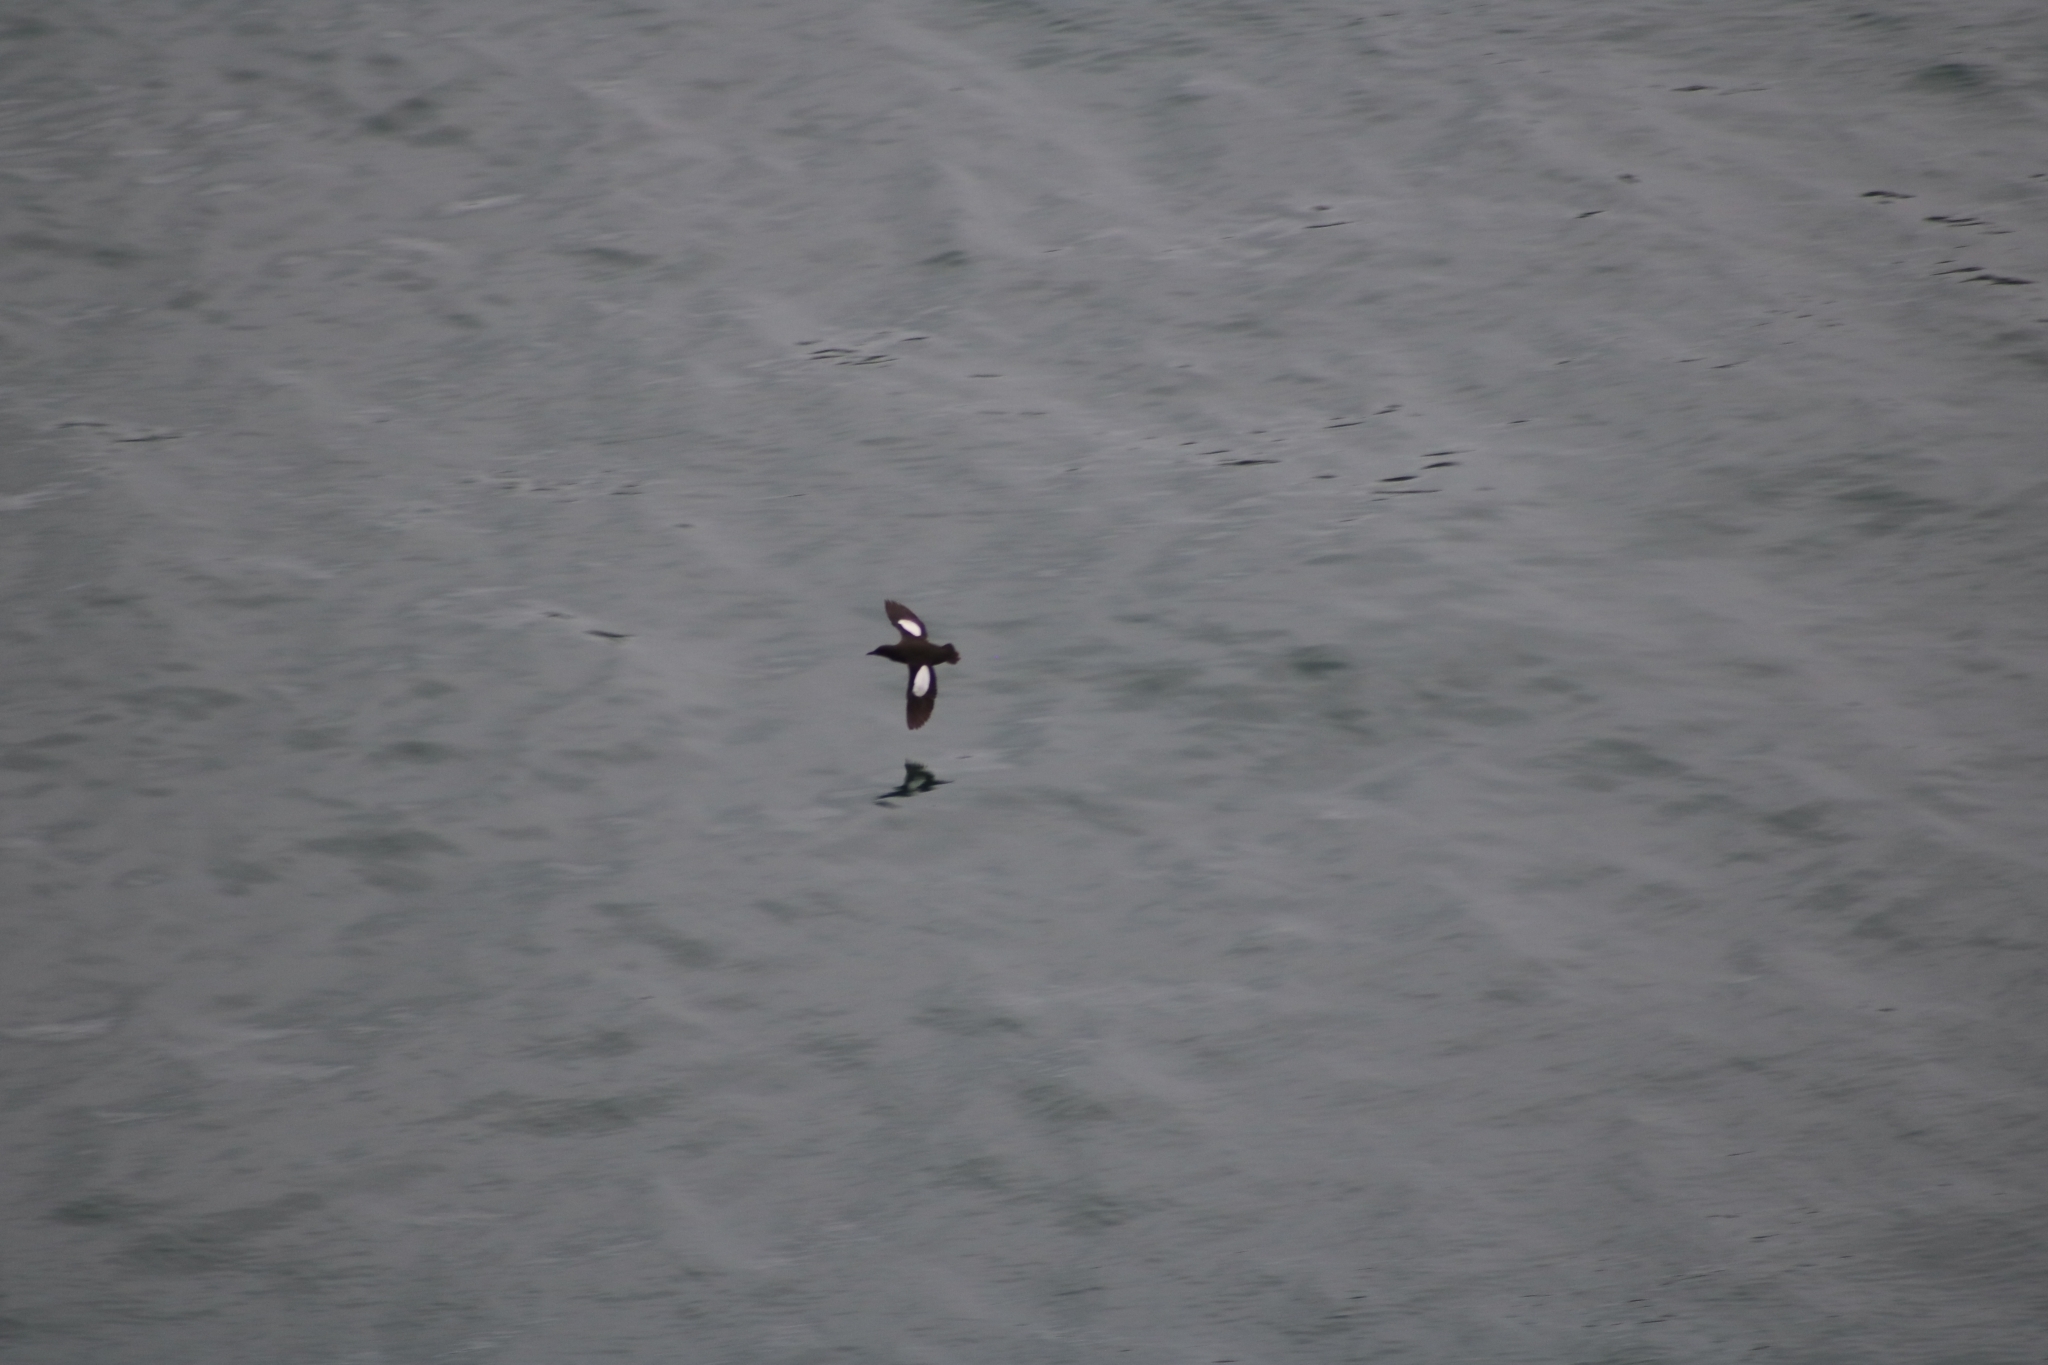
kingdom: Animalia
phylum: Chordata
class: Aves
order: Charadriiformes
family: Alcidae
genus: Cepphus
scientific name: Cepphus grylle
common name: Black guillemot
